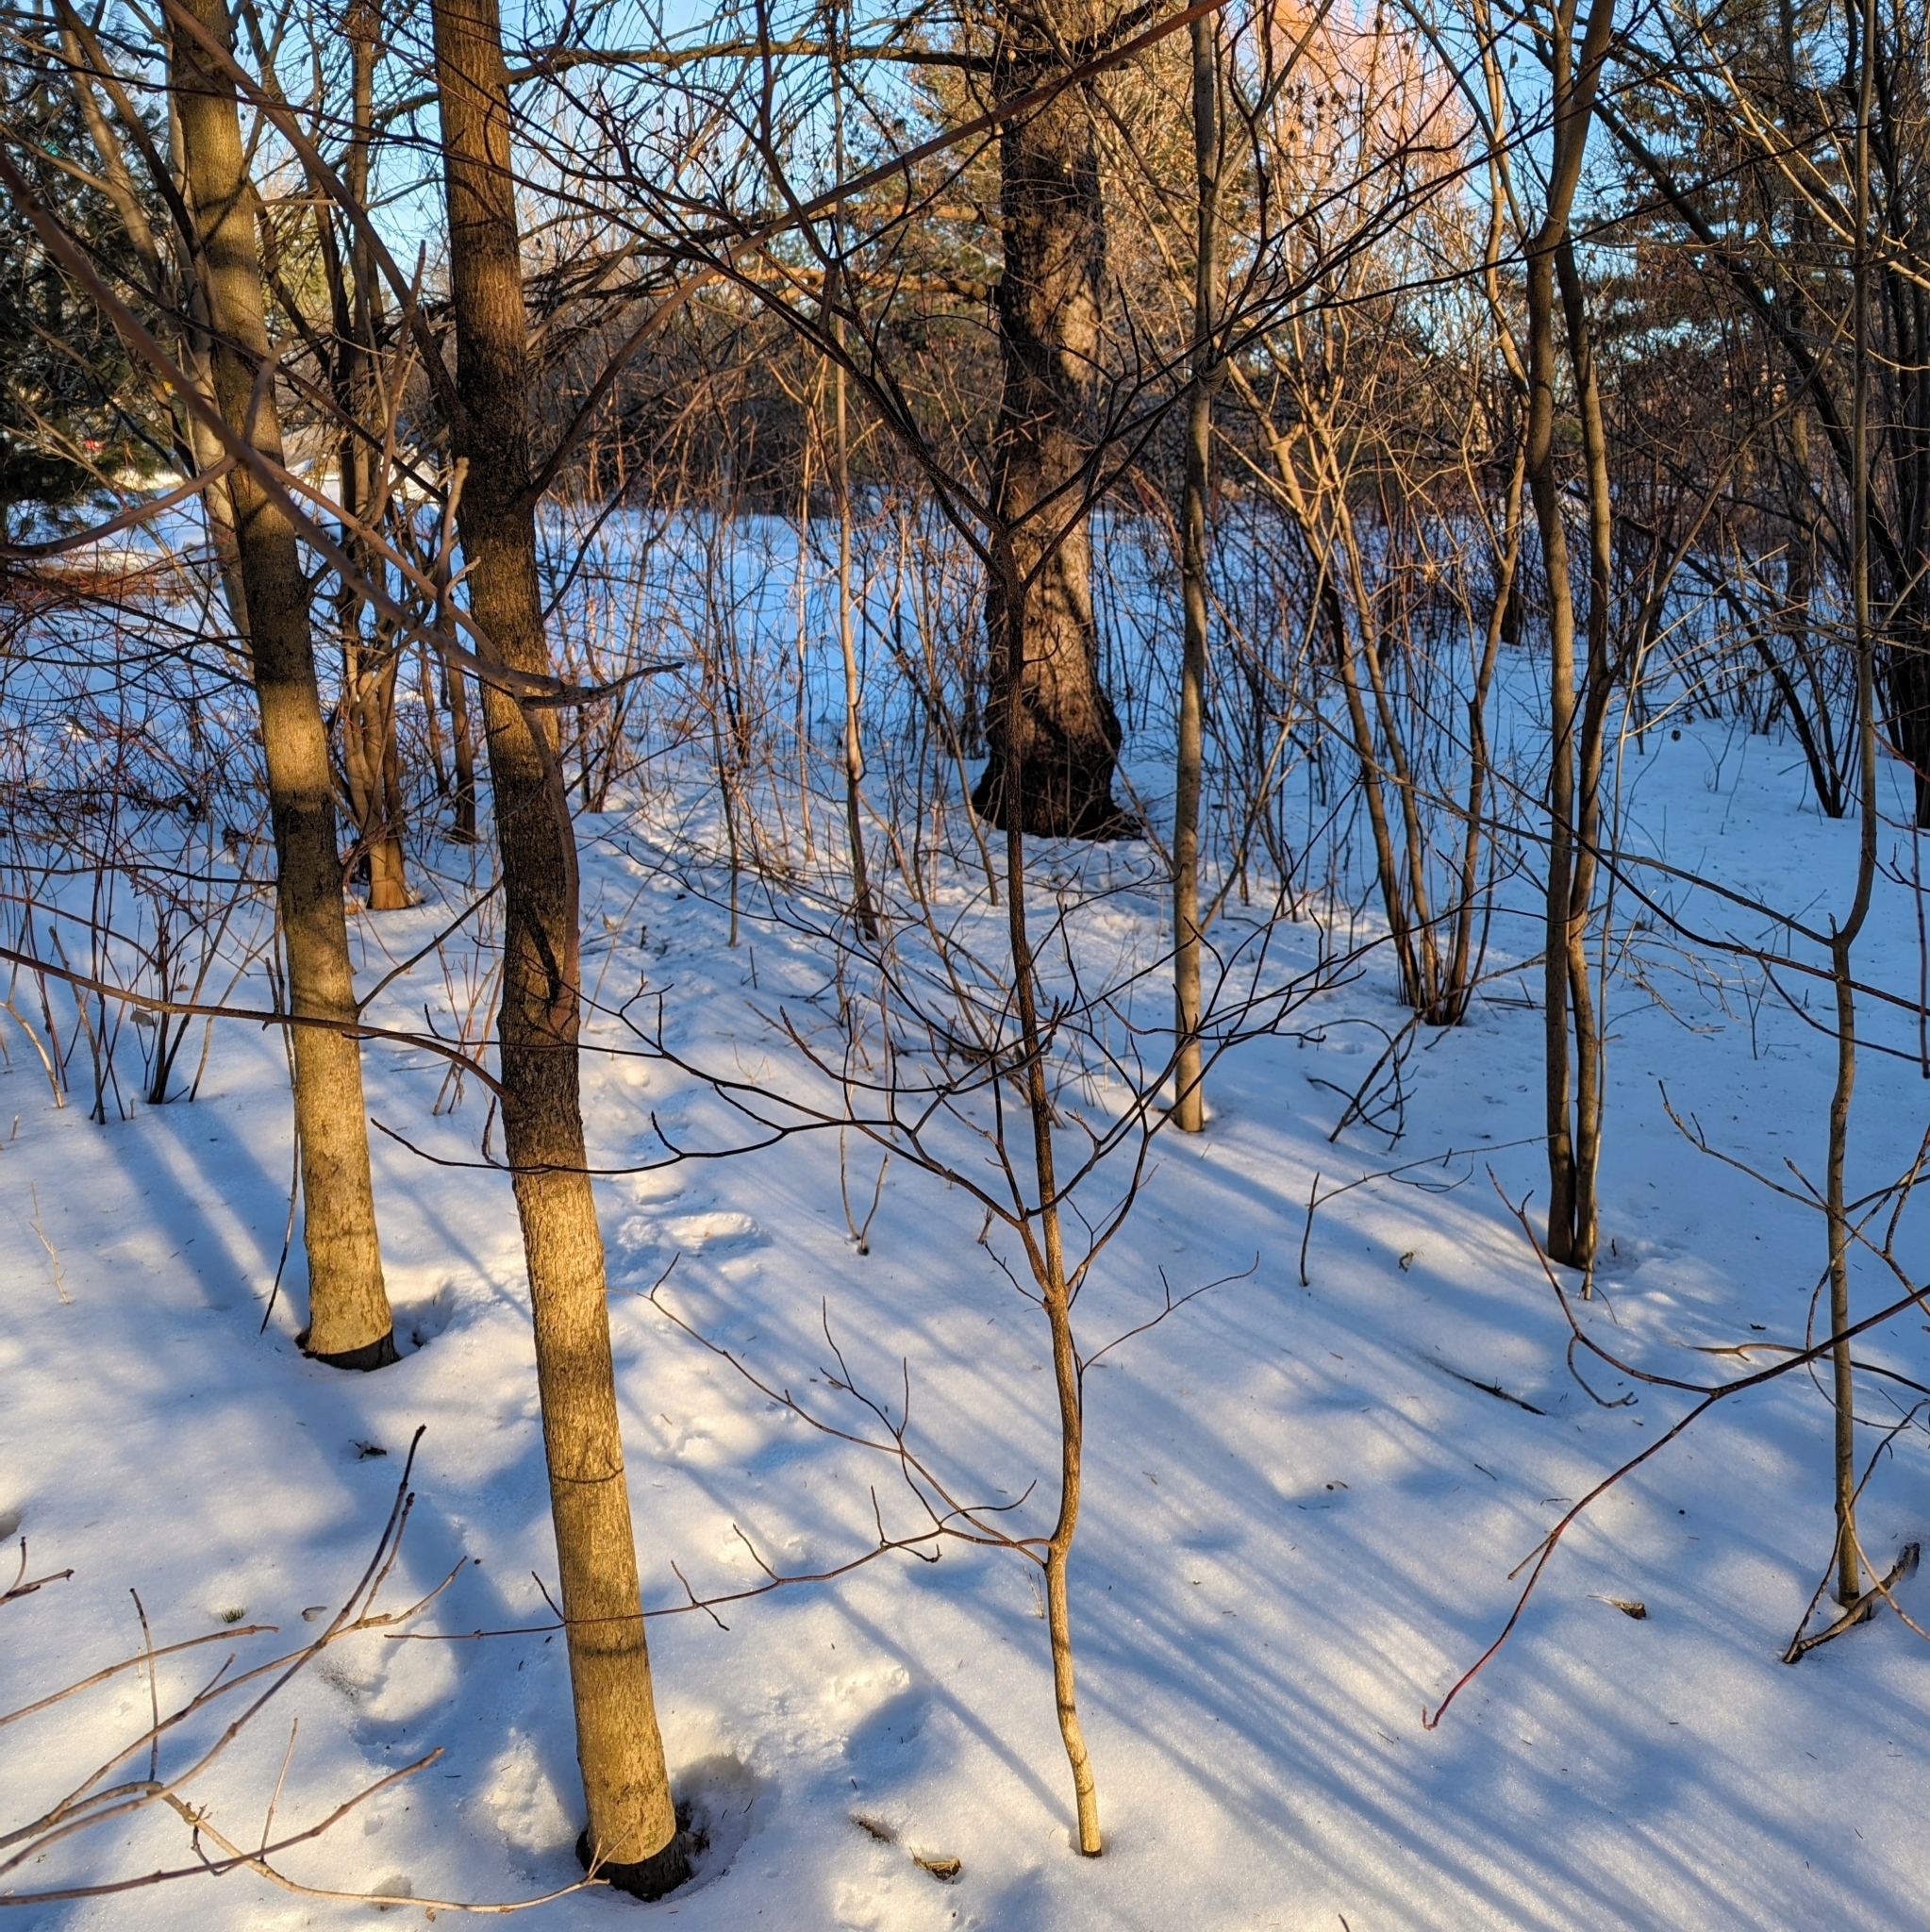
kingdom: Plantae
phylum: Tracheophyta
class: Magnoliopsida
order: Cornales
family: Cornaceae
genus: Cornus
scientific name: Cornus alternifolia
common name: Pagoda dogwood
